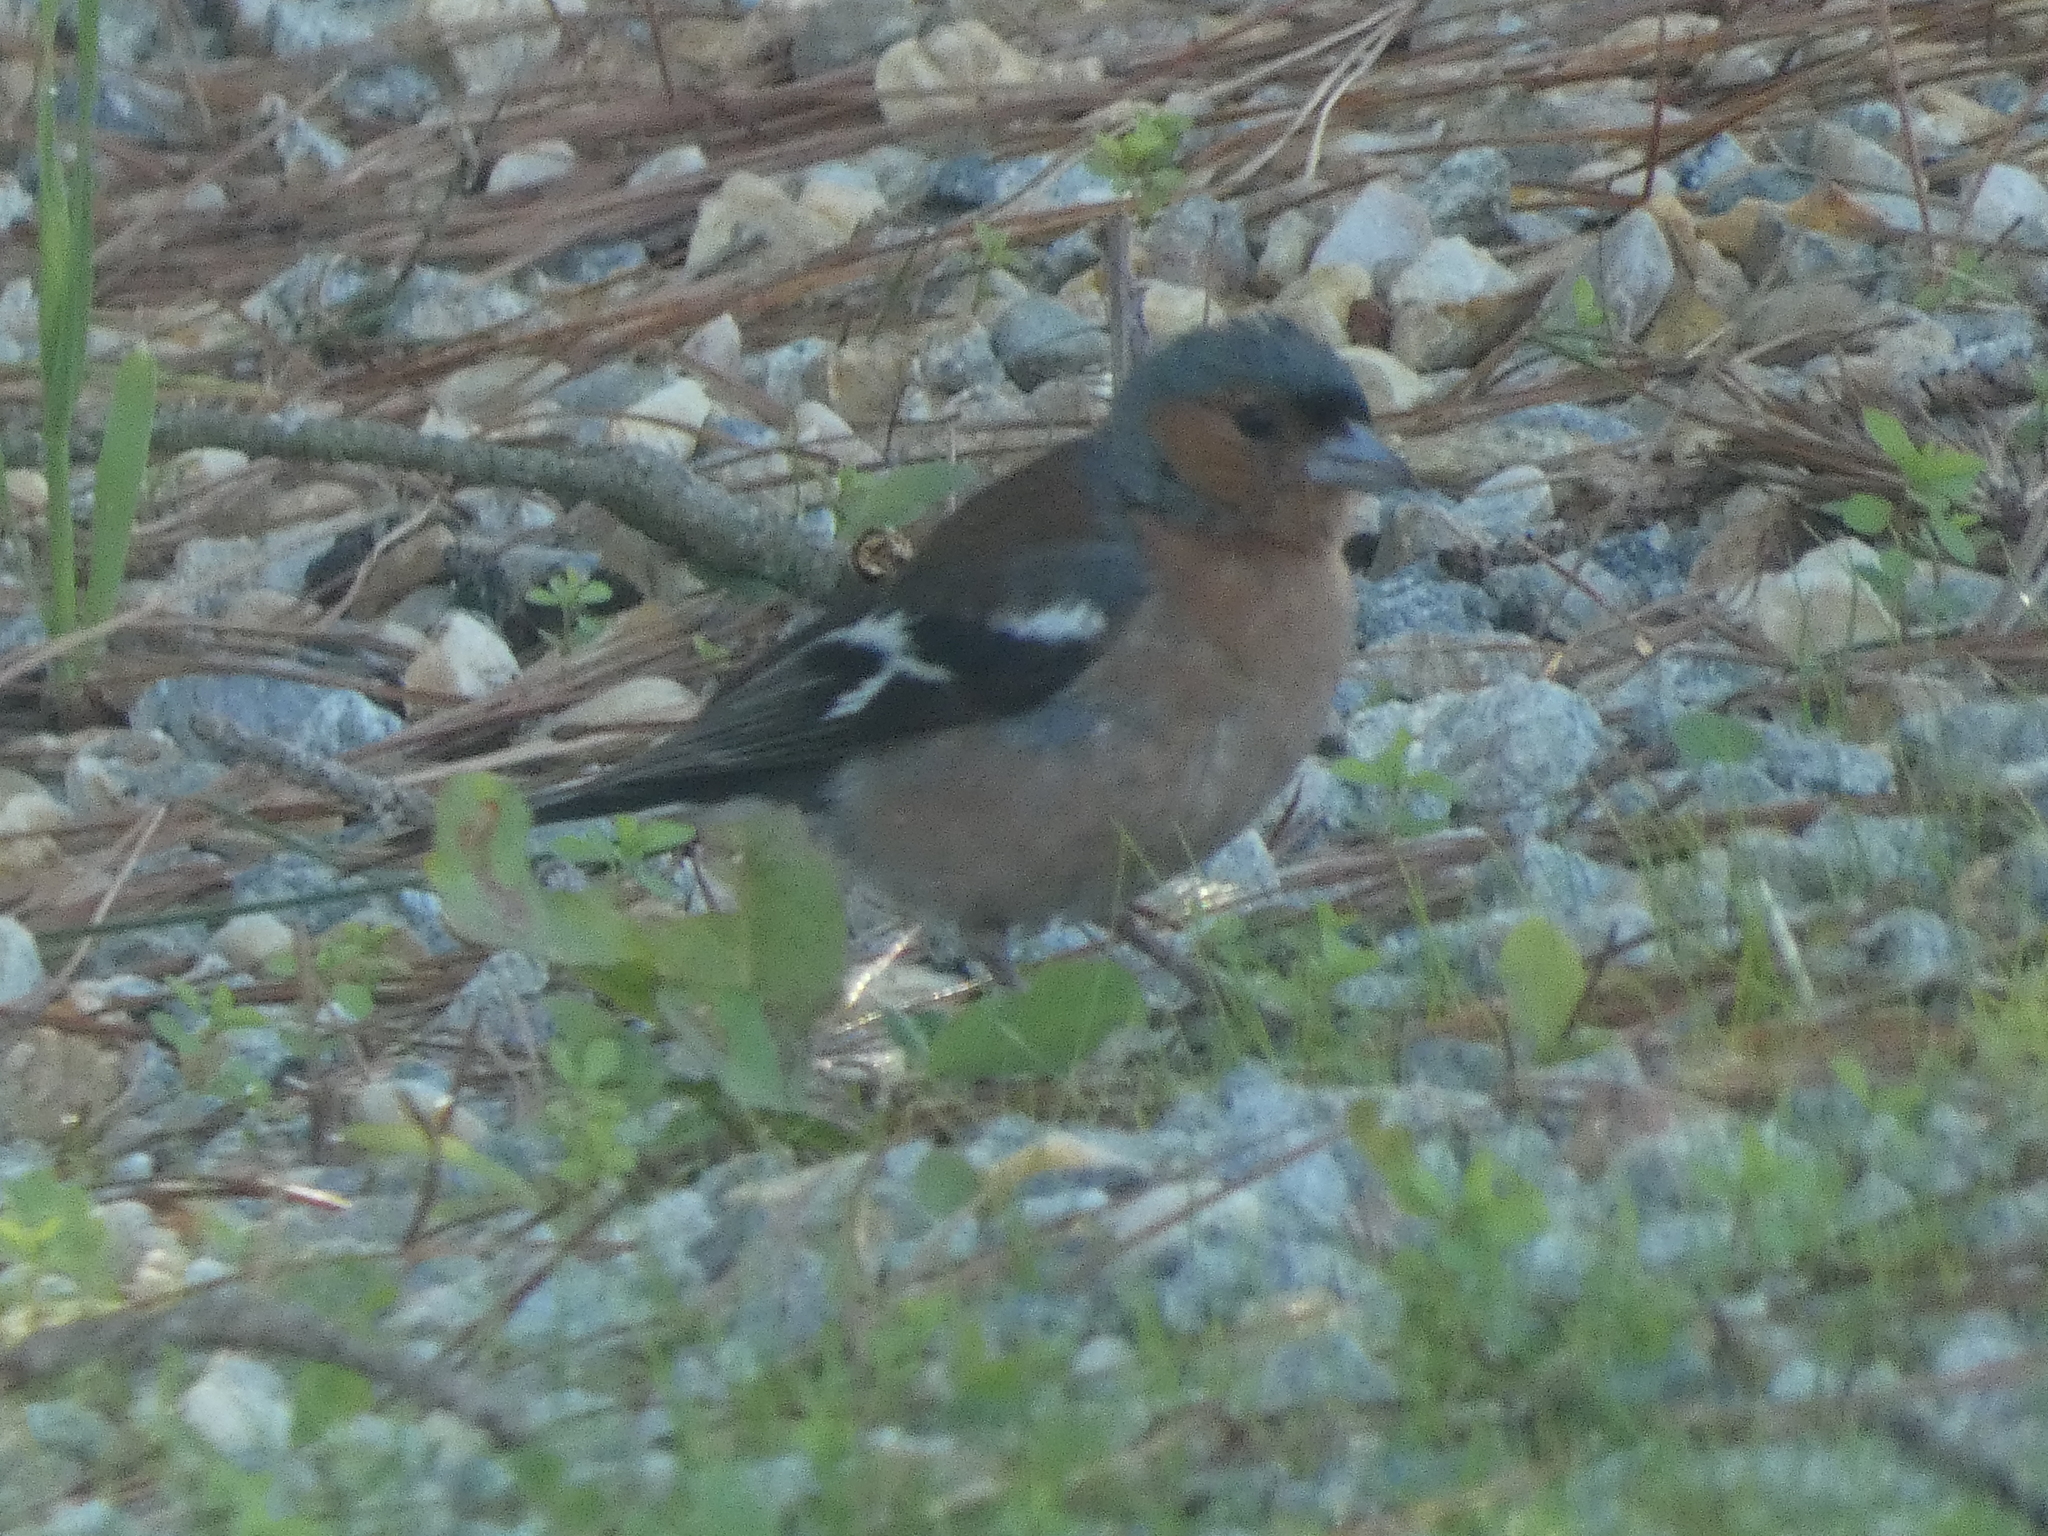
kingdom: Animalia
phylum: Chordata
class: Aves
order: Passeriformes
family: Fringillidae
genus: Fringilla
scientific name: Fringilla coelebs
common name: Common chaffinch
